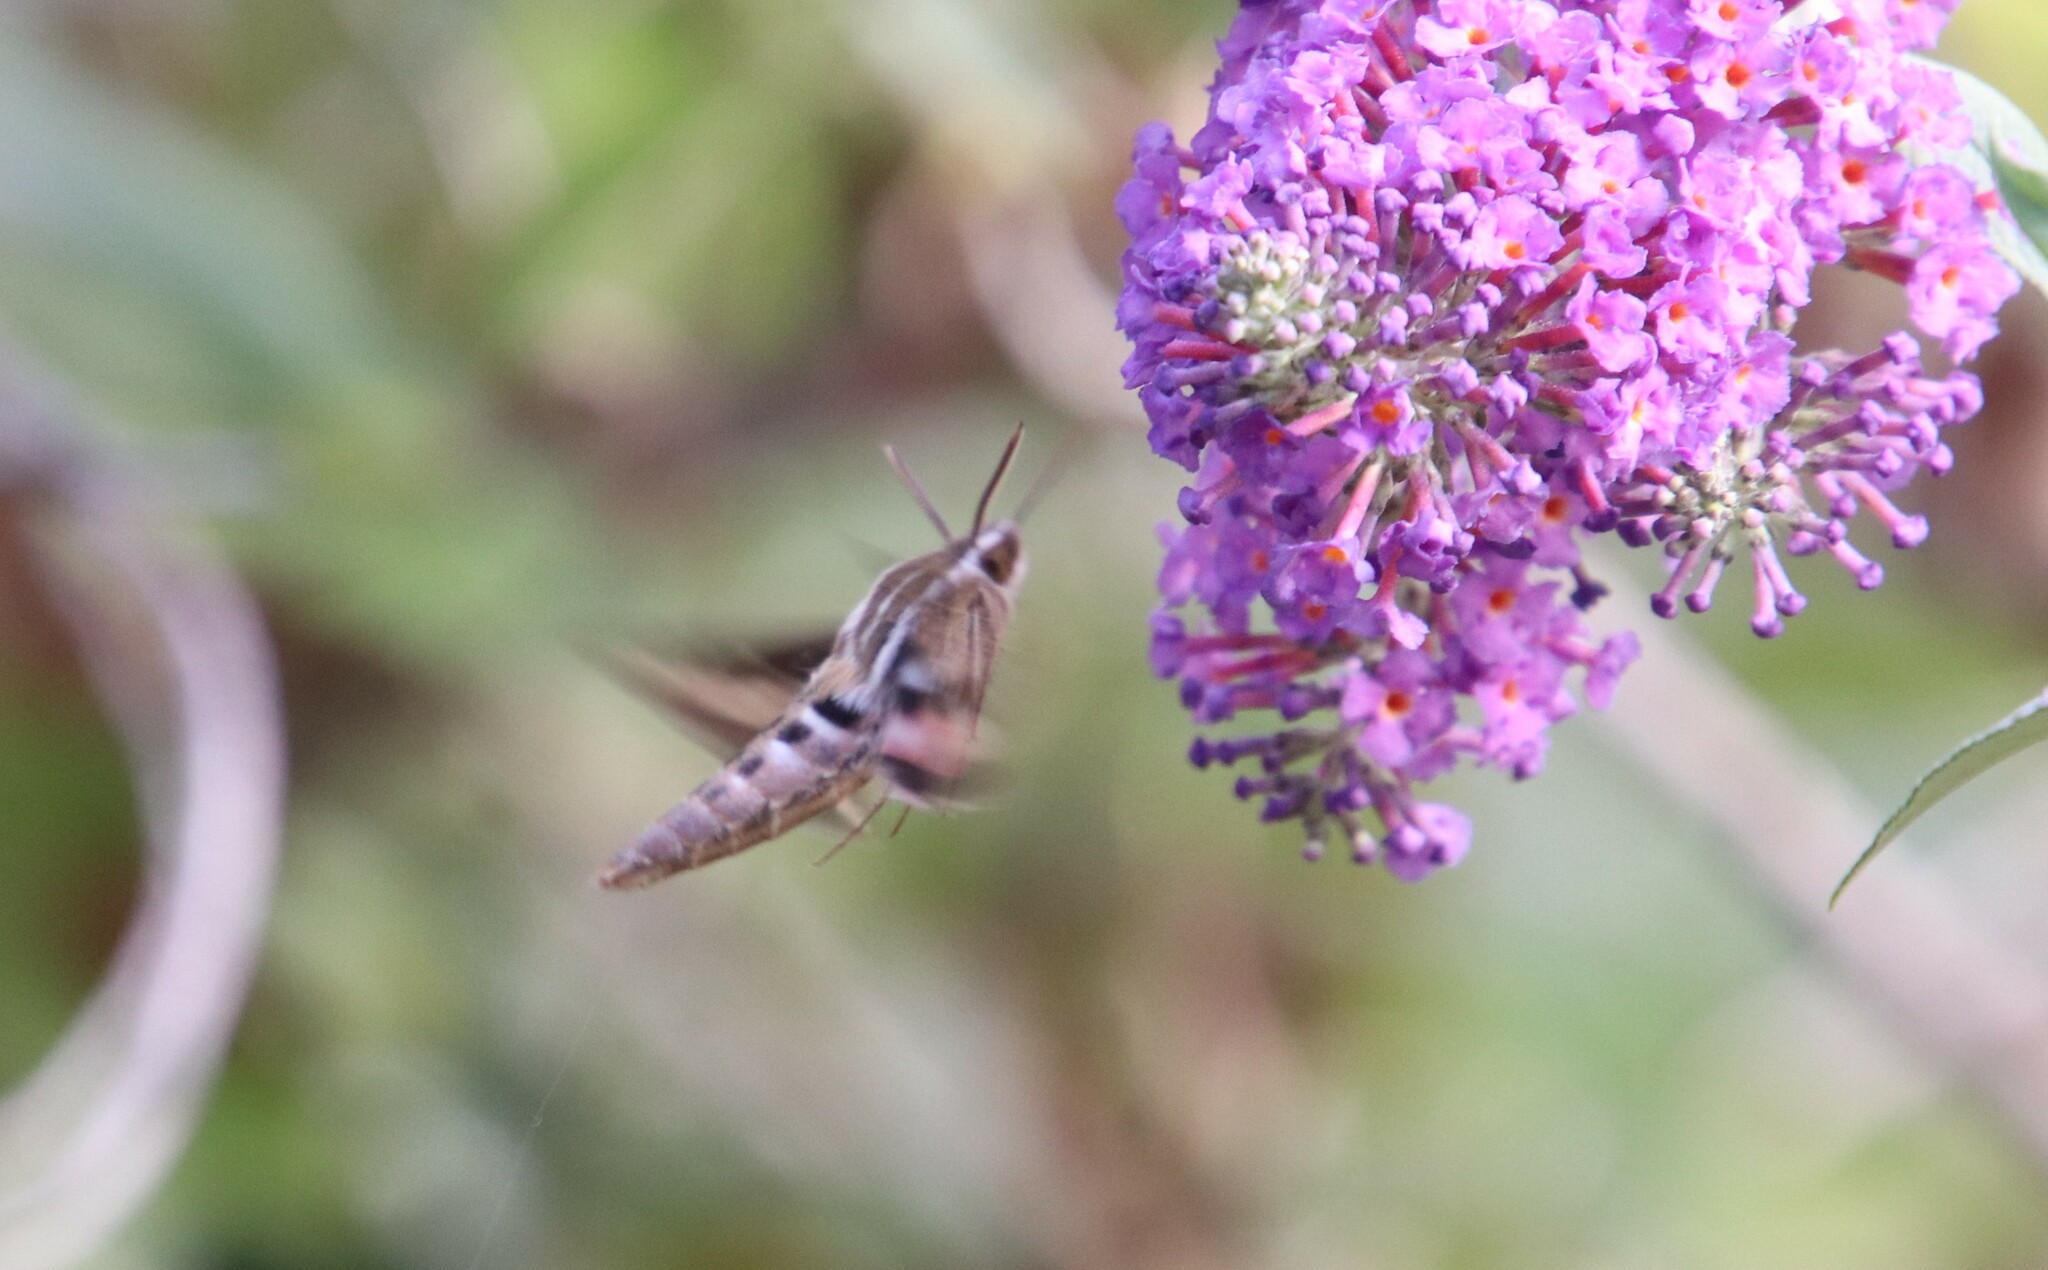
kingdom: Animalia
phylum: Arthropoda
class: Insecta
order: Lepidoptera
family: Sphingidae
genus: Hyles
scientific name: Hyles lineata
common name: White-lined sphinx
